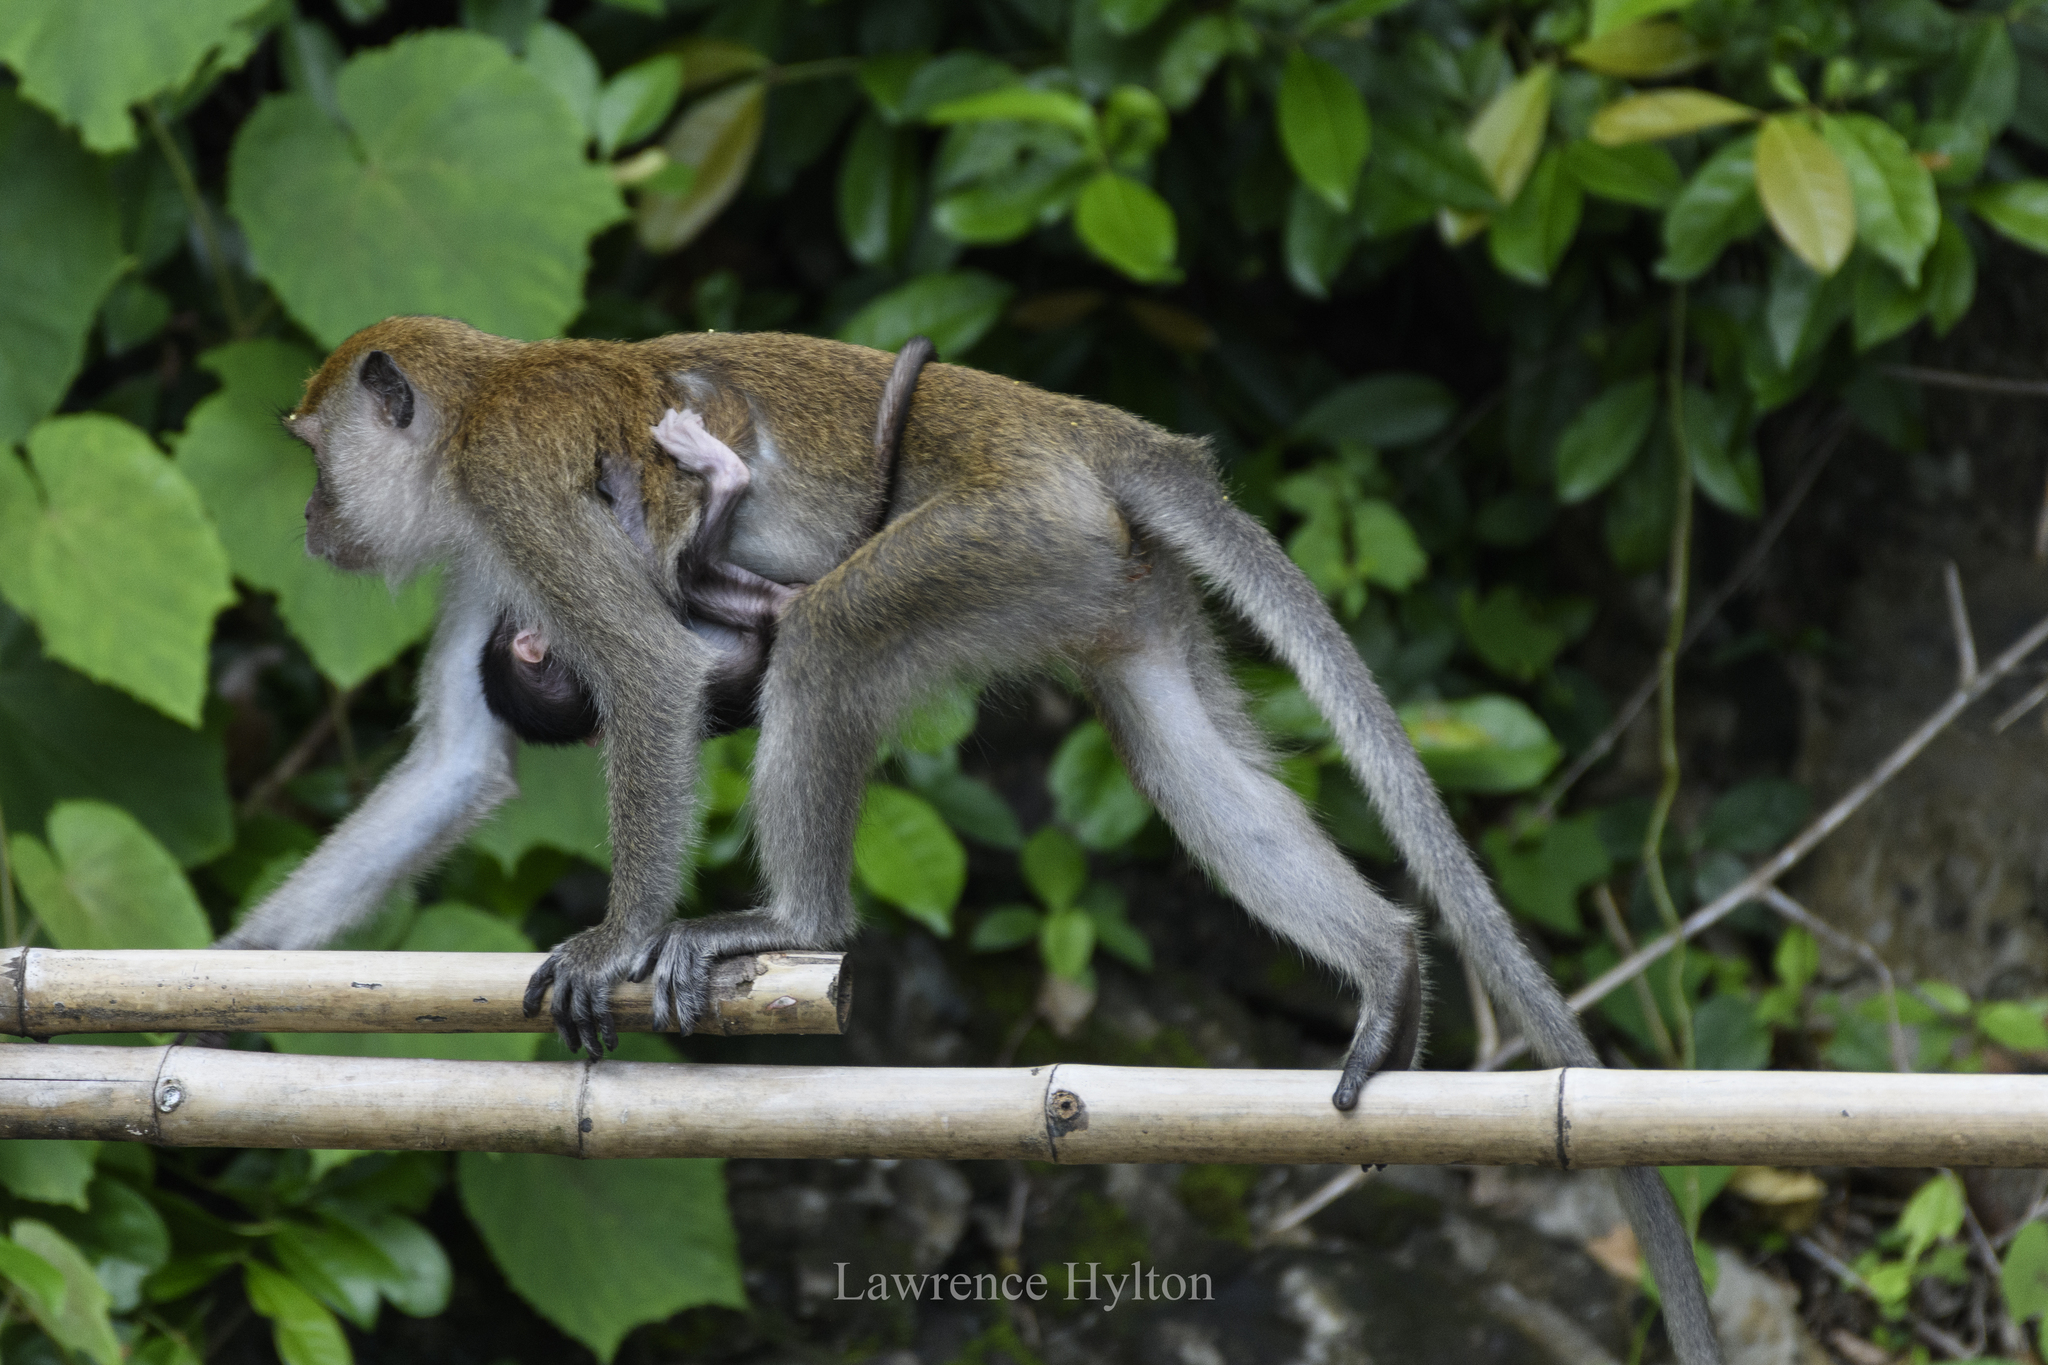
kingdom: Animalia
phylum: Chordata
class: Mammalia
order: Primates
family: Cercopithecidae
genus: Macaca
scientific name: Macaca fascicularis
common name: Crab-eating macaque
